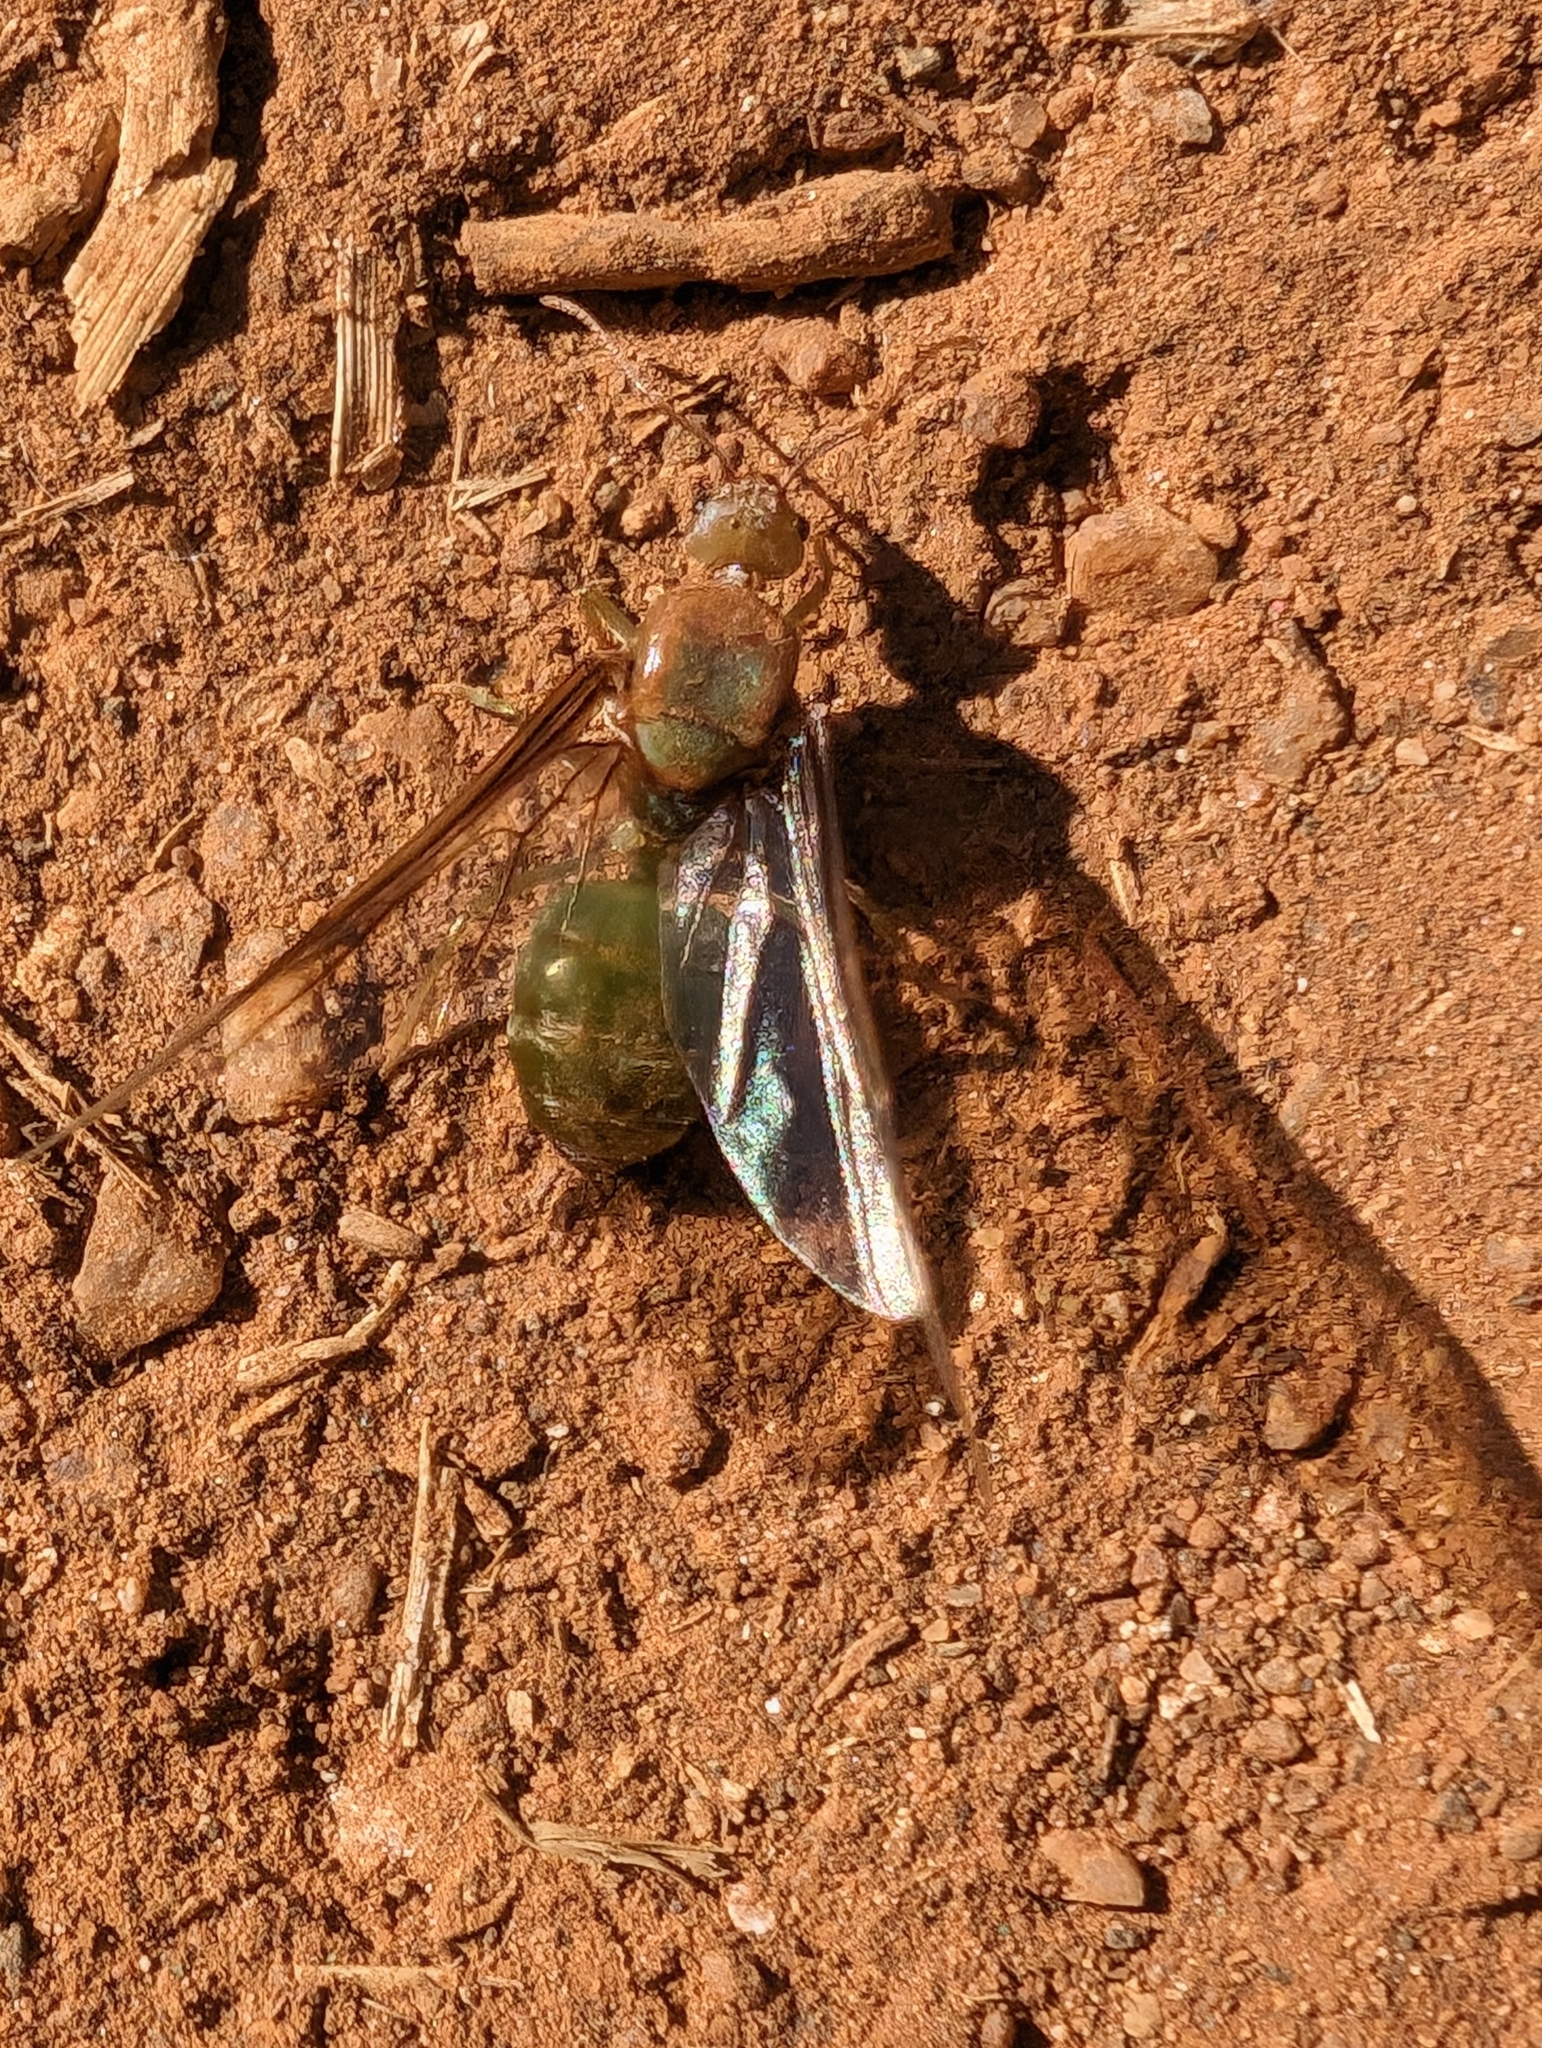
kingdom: Animalia
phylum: Arthropoda
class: Insecta
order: Hymenoptera
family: Formicidae
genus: Oecophylla
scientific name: Oecophylla smaragdina
